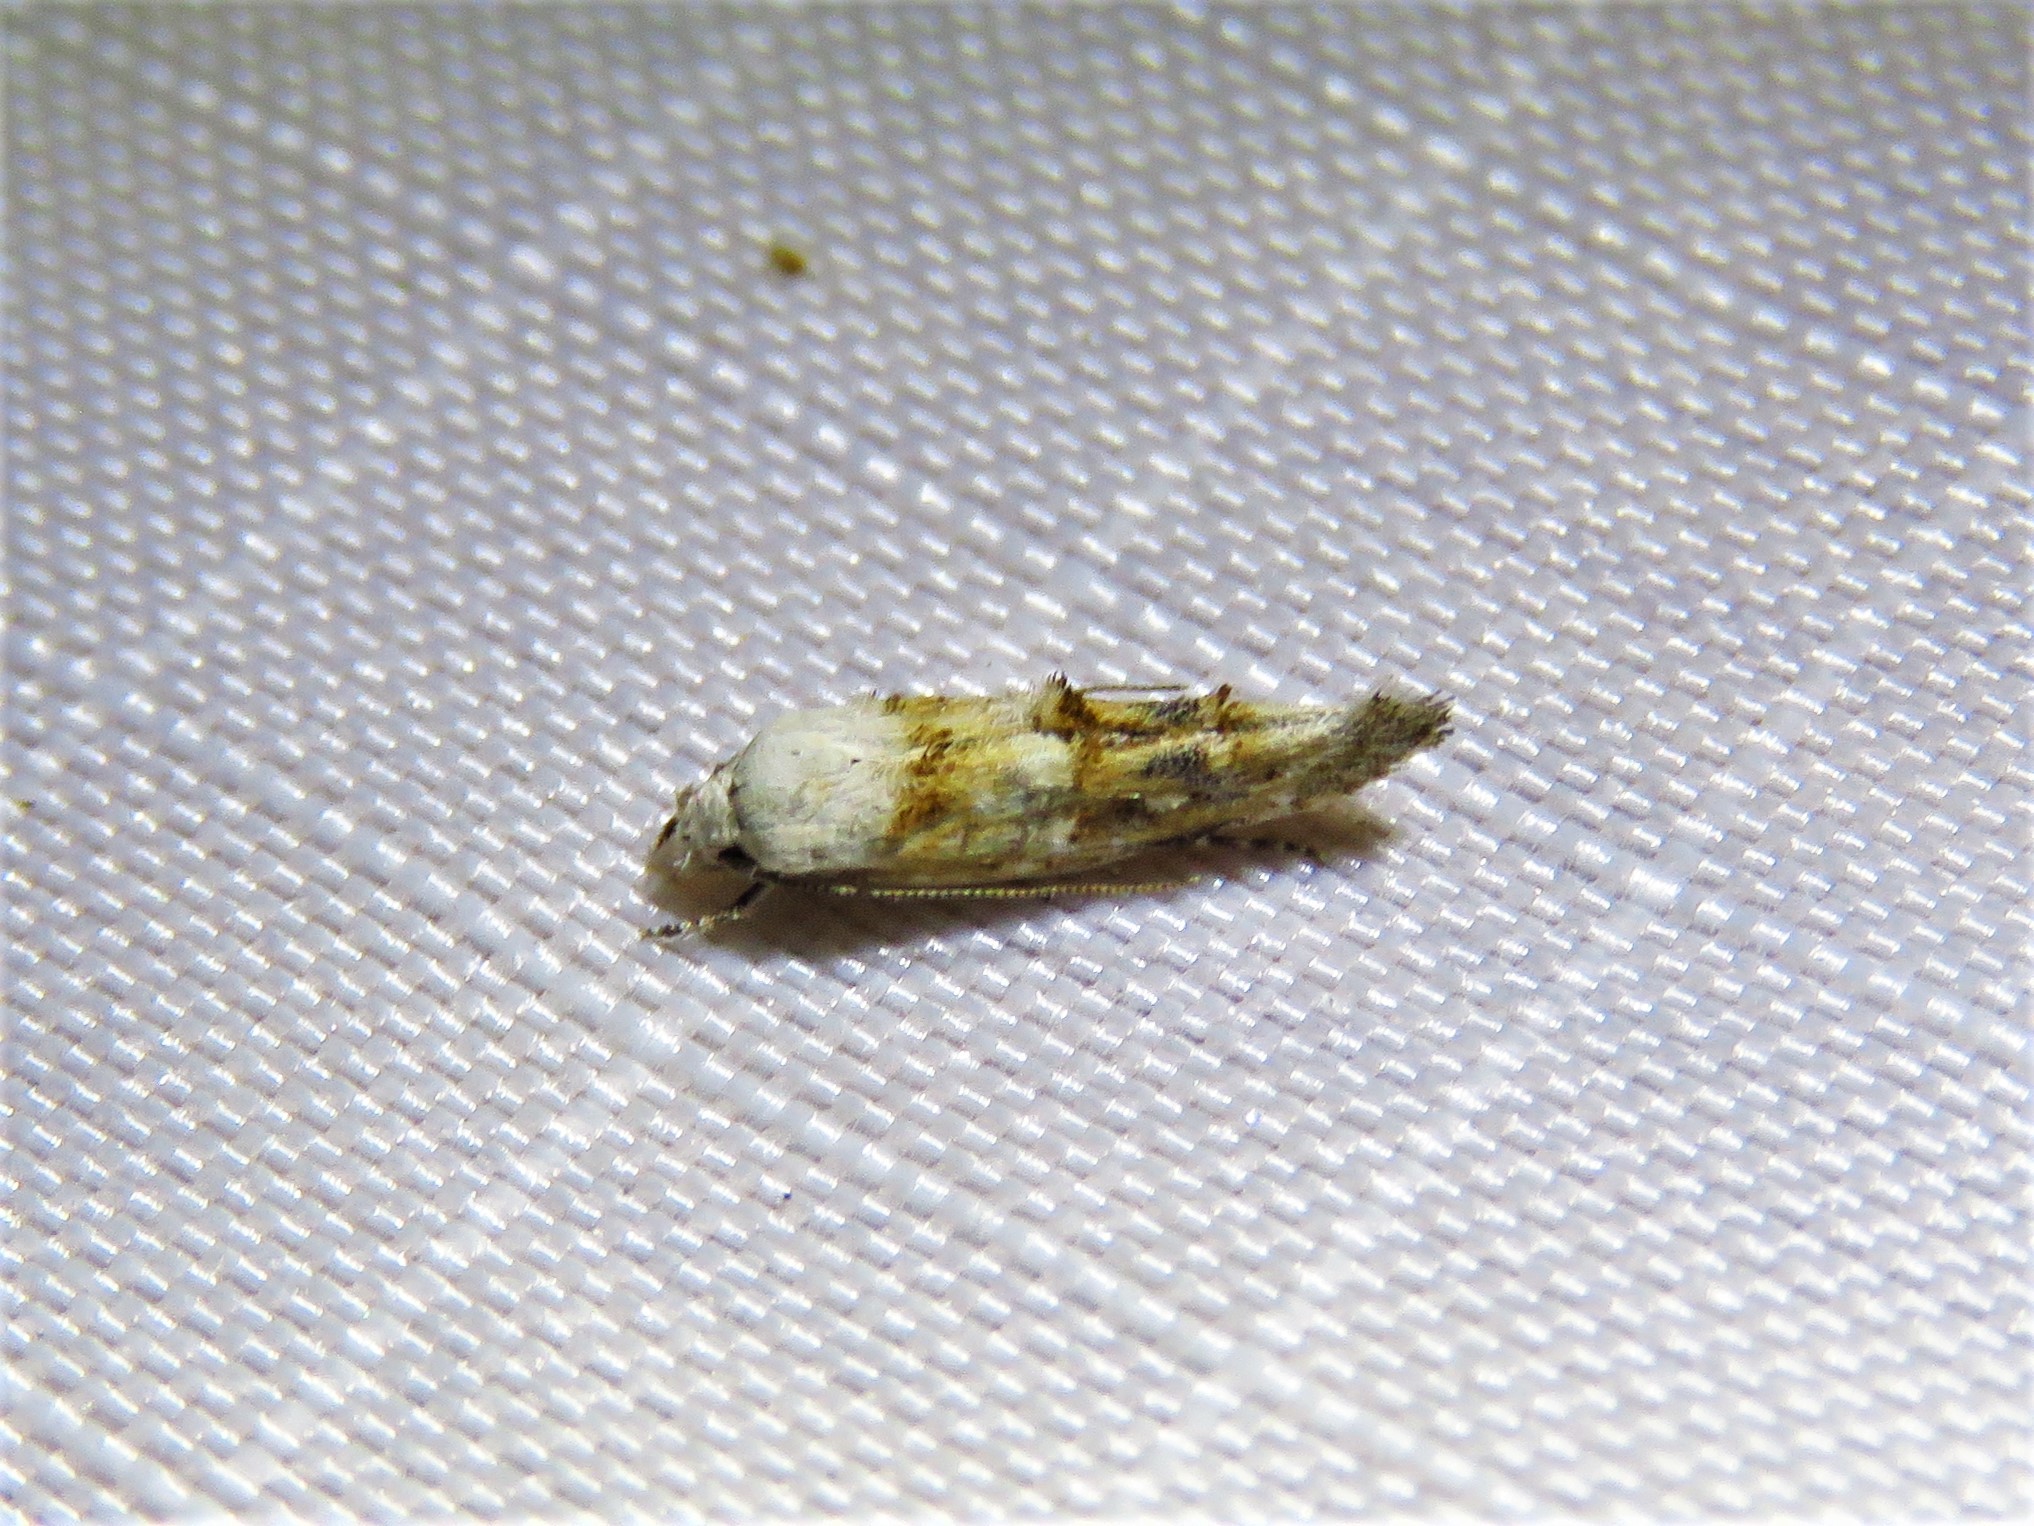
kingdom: Animalia
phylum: Arthropoda
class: Insecta
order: Lepidoptera
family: Momphidae
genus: Mompha
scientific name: Mompha albocapitella
